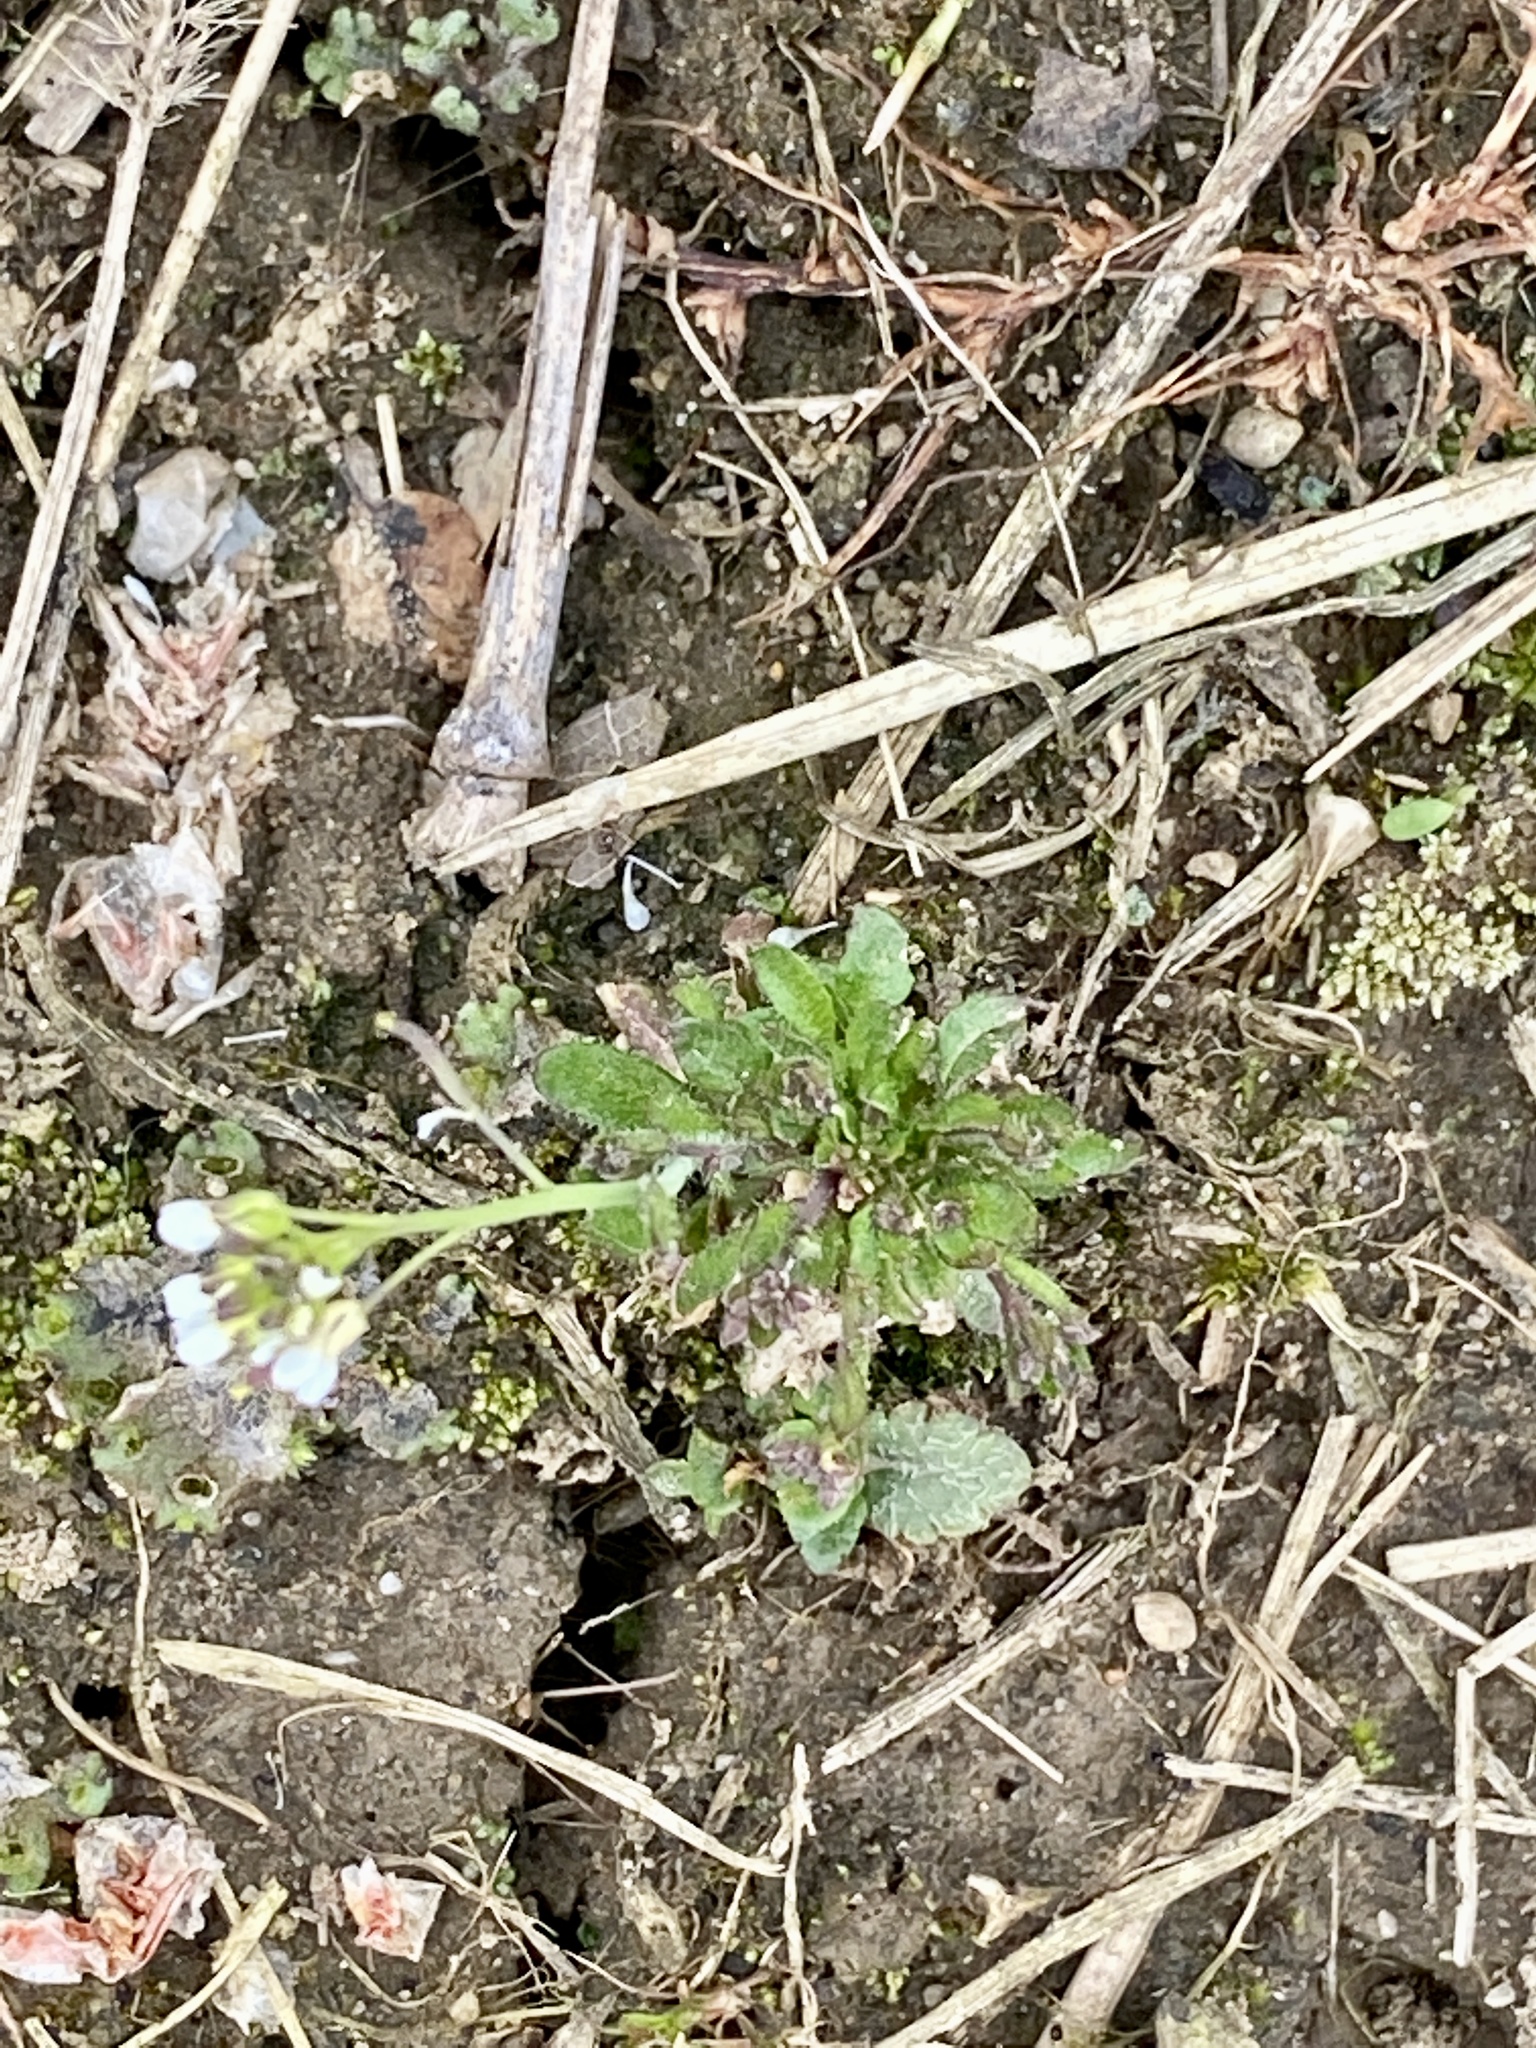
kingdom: Plantae
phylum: Tracheophyta
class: Magnoliopsida
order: Brassicales
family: Brassicaceae
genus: Arabidopsis
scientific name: Arabidopsis thaliana
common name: Thale cress
